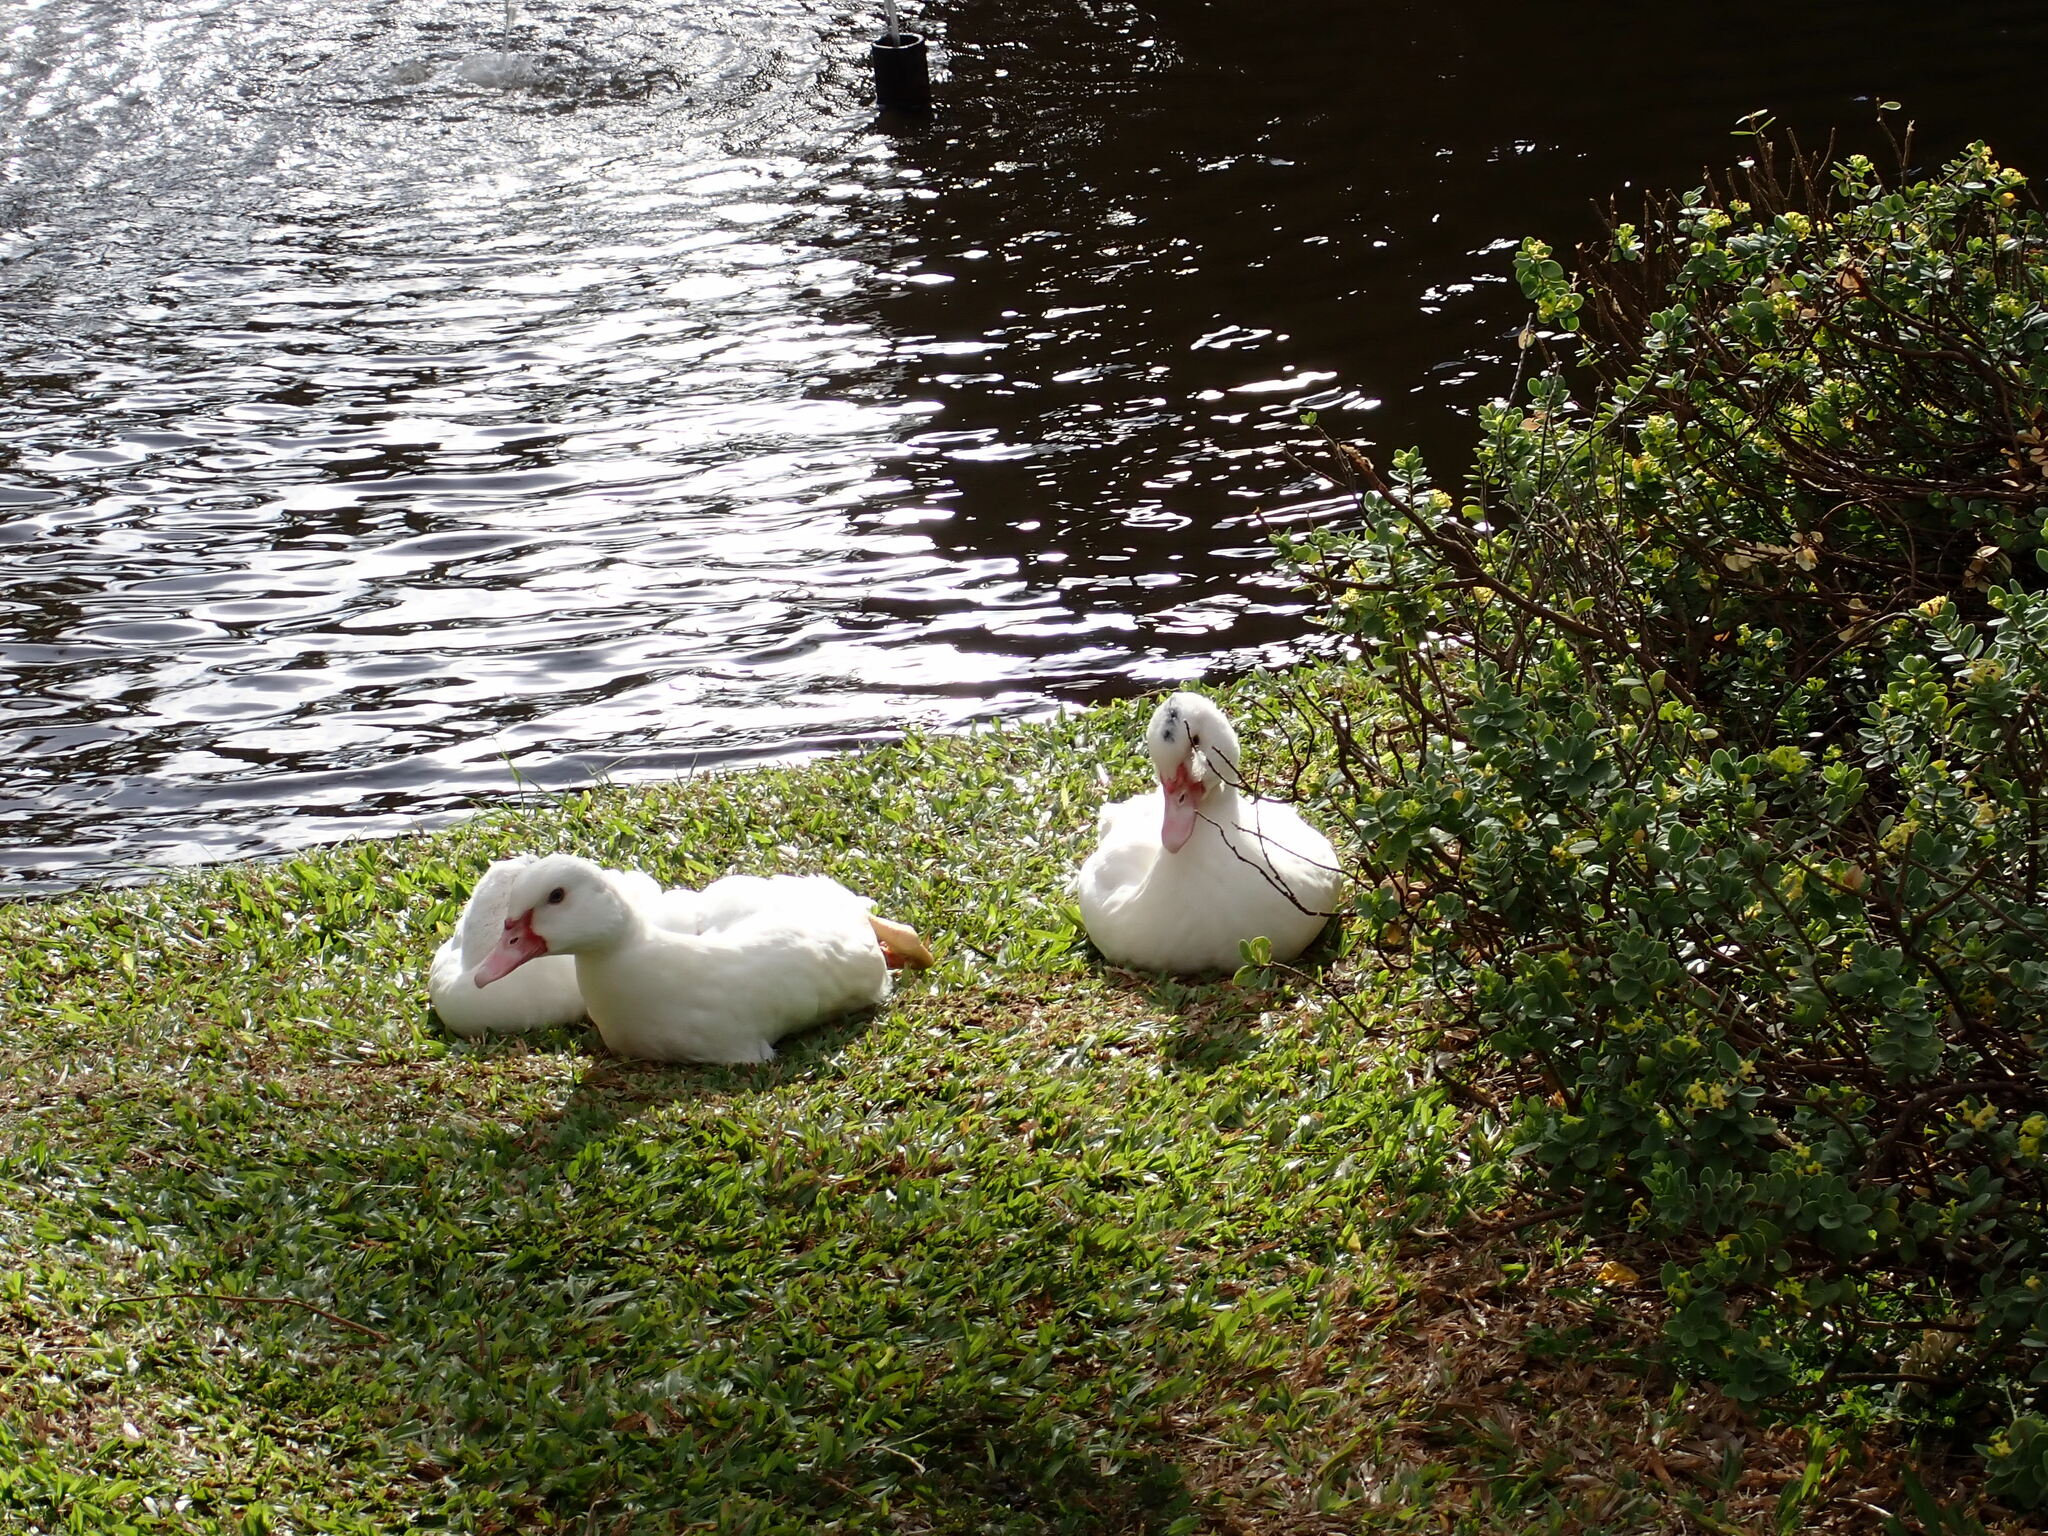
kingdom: Animalia
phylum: Chordata
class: Aves
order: Anseriformes
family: Anatidae
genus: Cairina
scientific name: Cairina moschata
